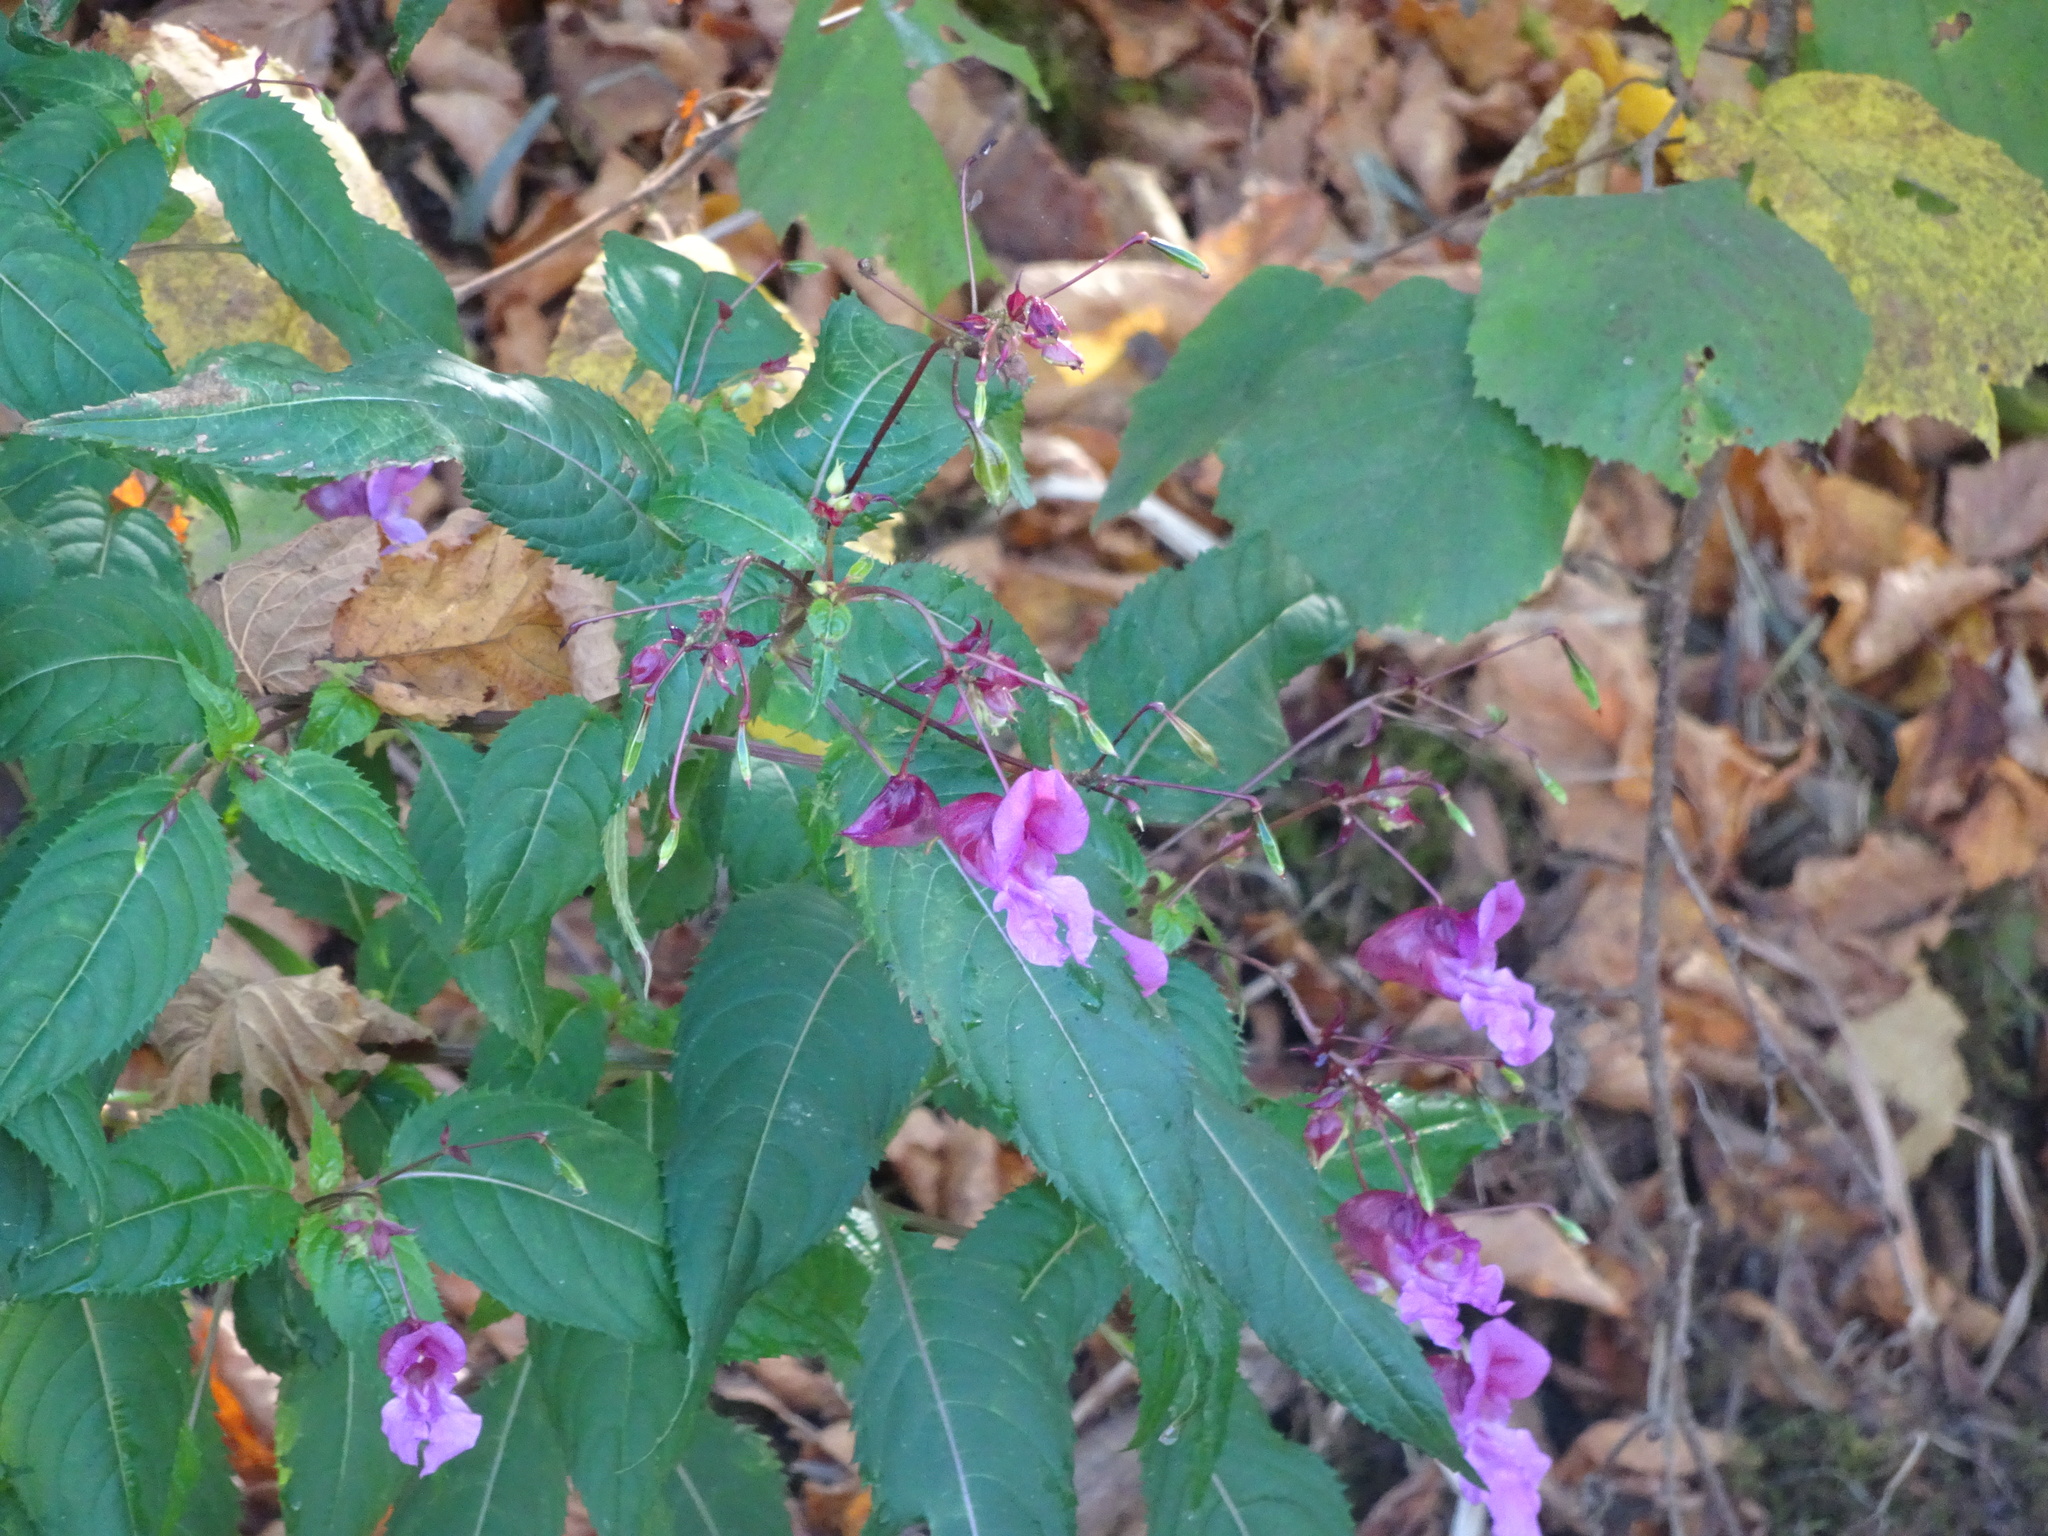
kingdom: Plantae
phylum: Tracheophyta
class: Magnoliopsida
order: Ericales
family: Balsaminaceae
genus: Impatiens
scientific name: Impatiens glandulifera
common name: Himalayan balsam
